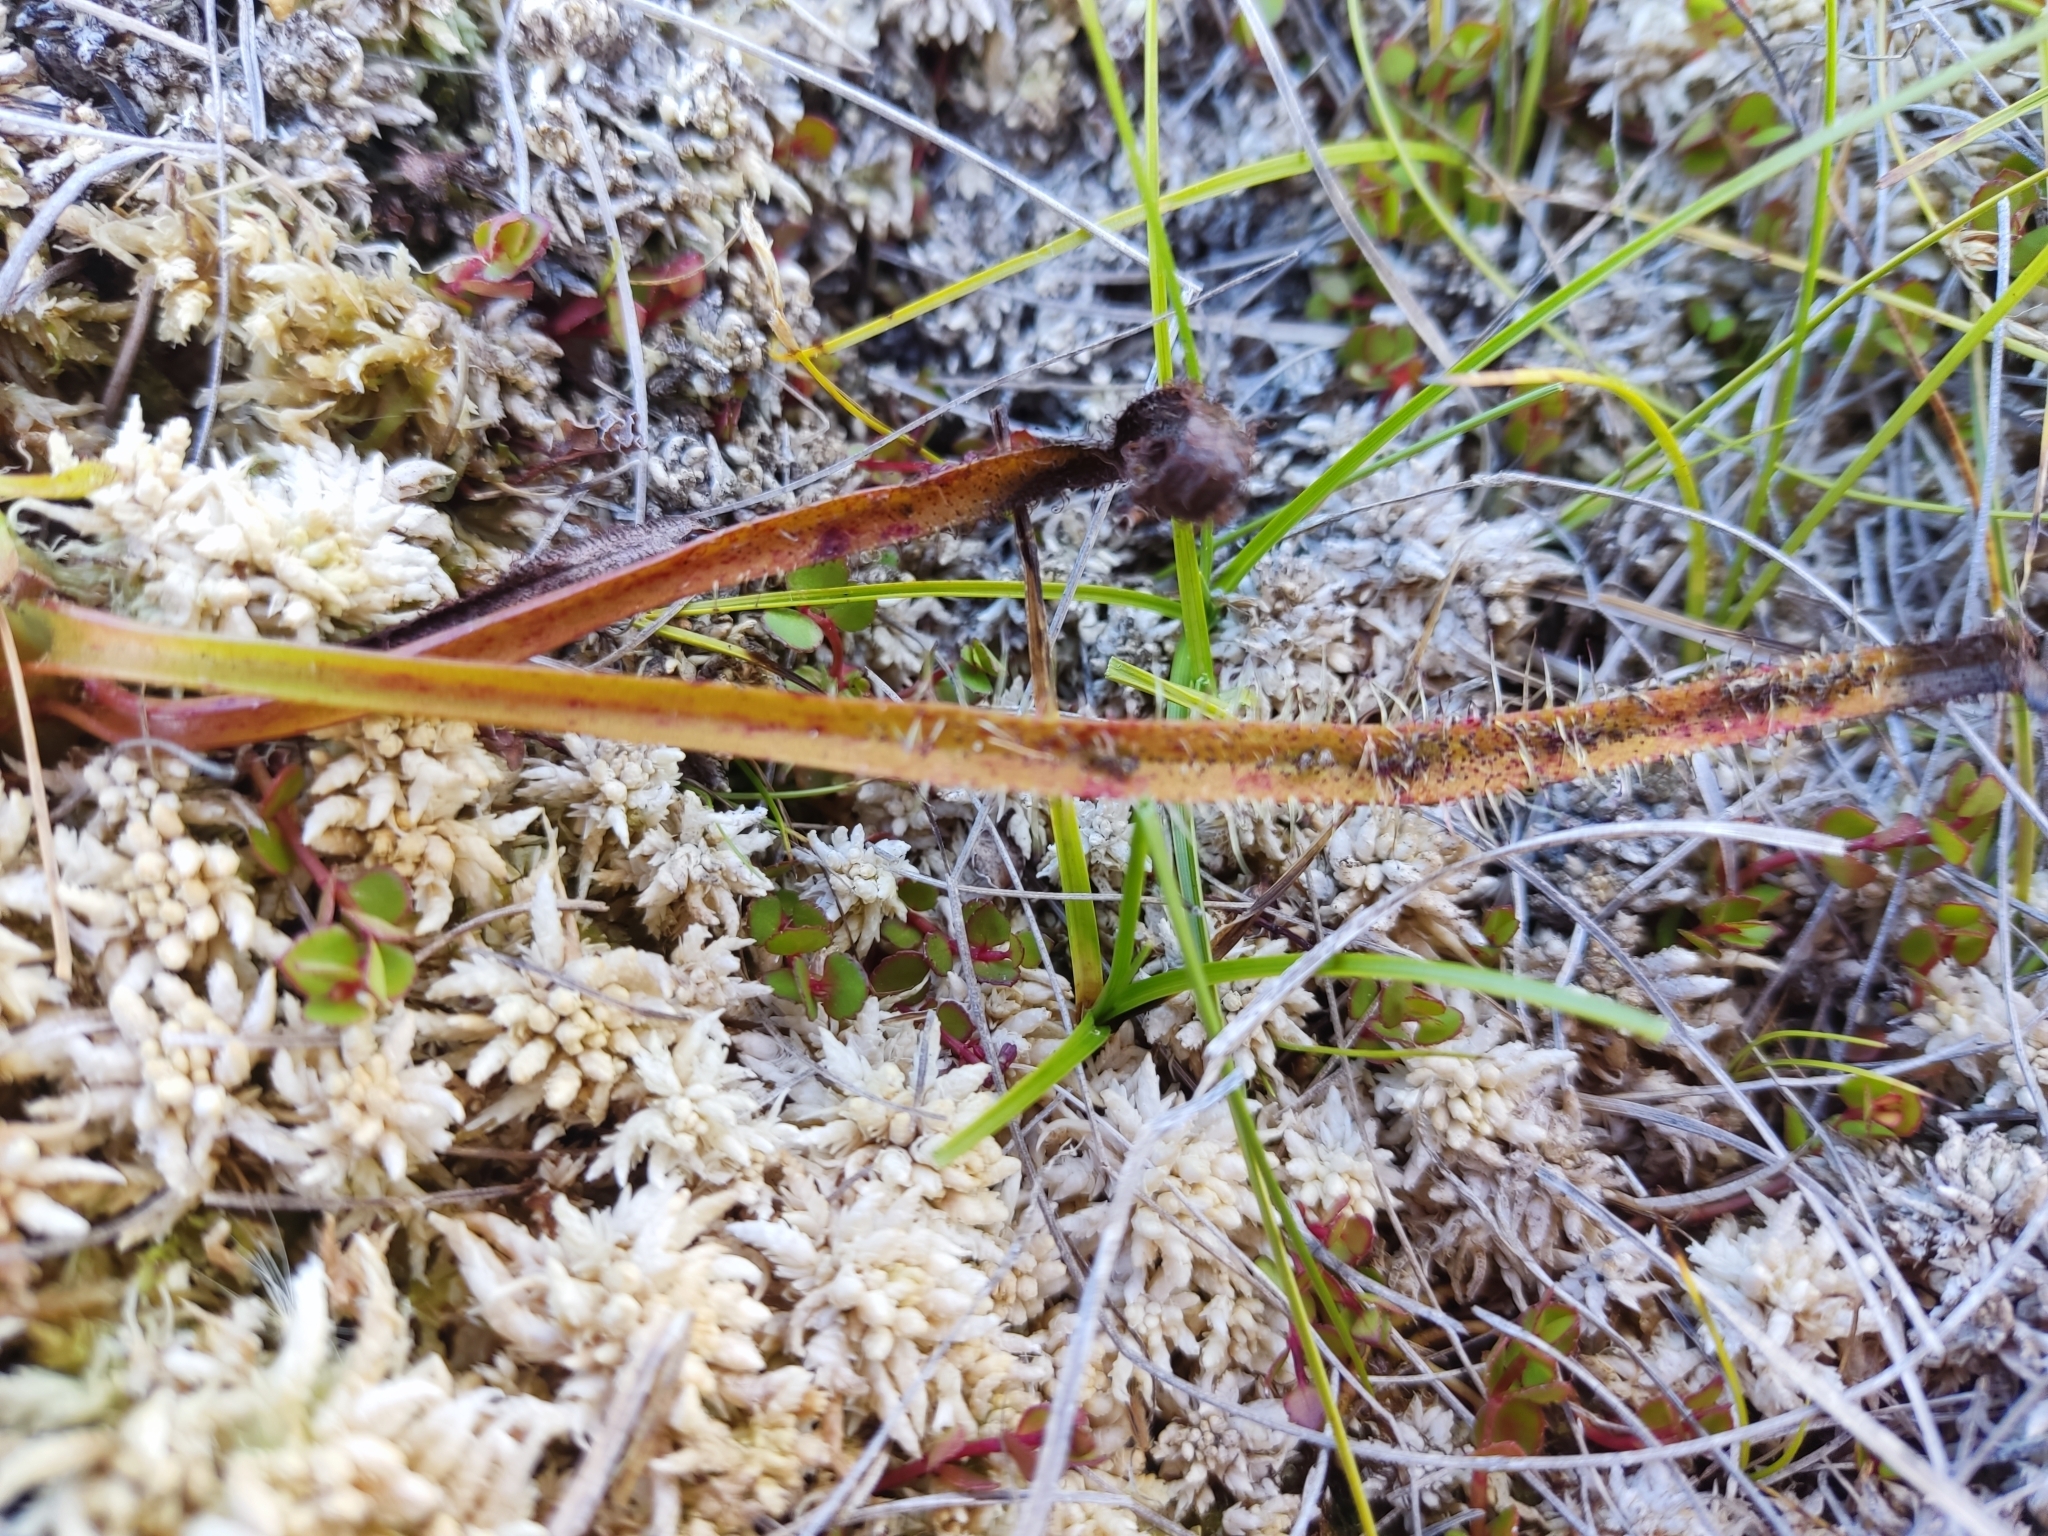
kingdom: Plantae
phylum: Tracheophyta
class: Magnoliopsida
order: Caryophyllales
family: Droseraceae
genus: Drosera
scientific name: Drosera arcturi
